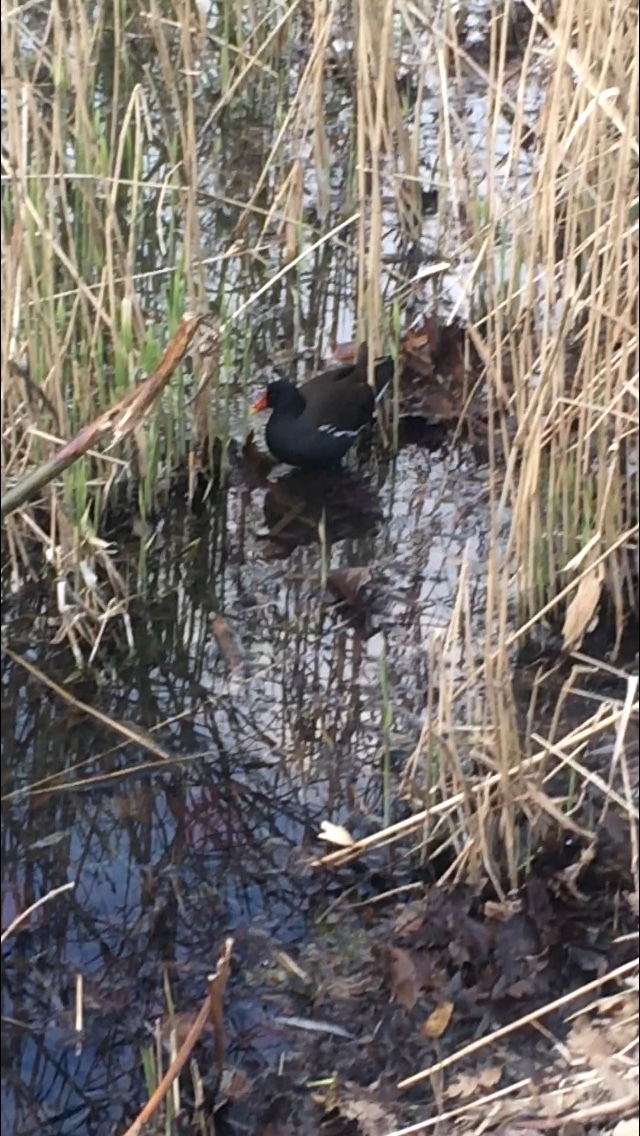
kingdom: Animalia
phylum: Chordata
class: Aves
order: Gruiformes
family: Rallidae
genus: Gallinula
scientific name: Gallinula chloropus
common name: Common moorhen
